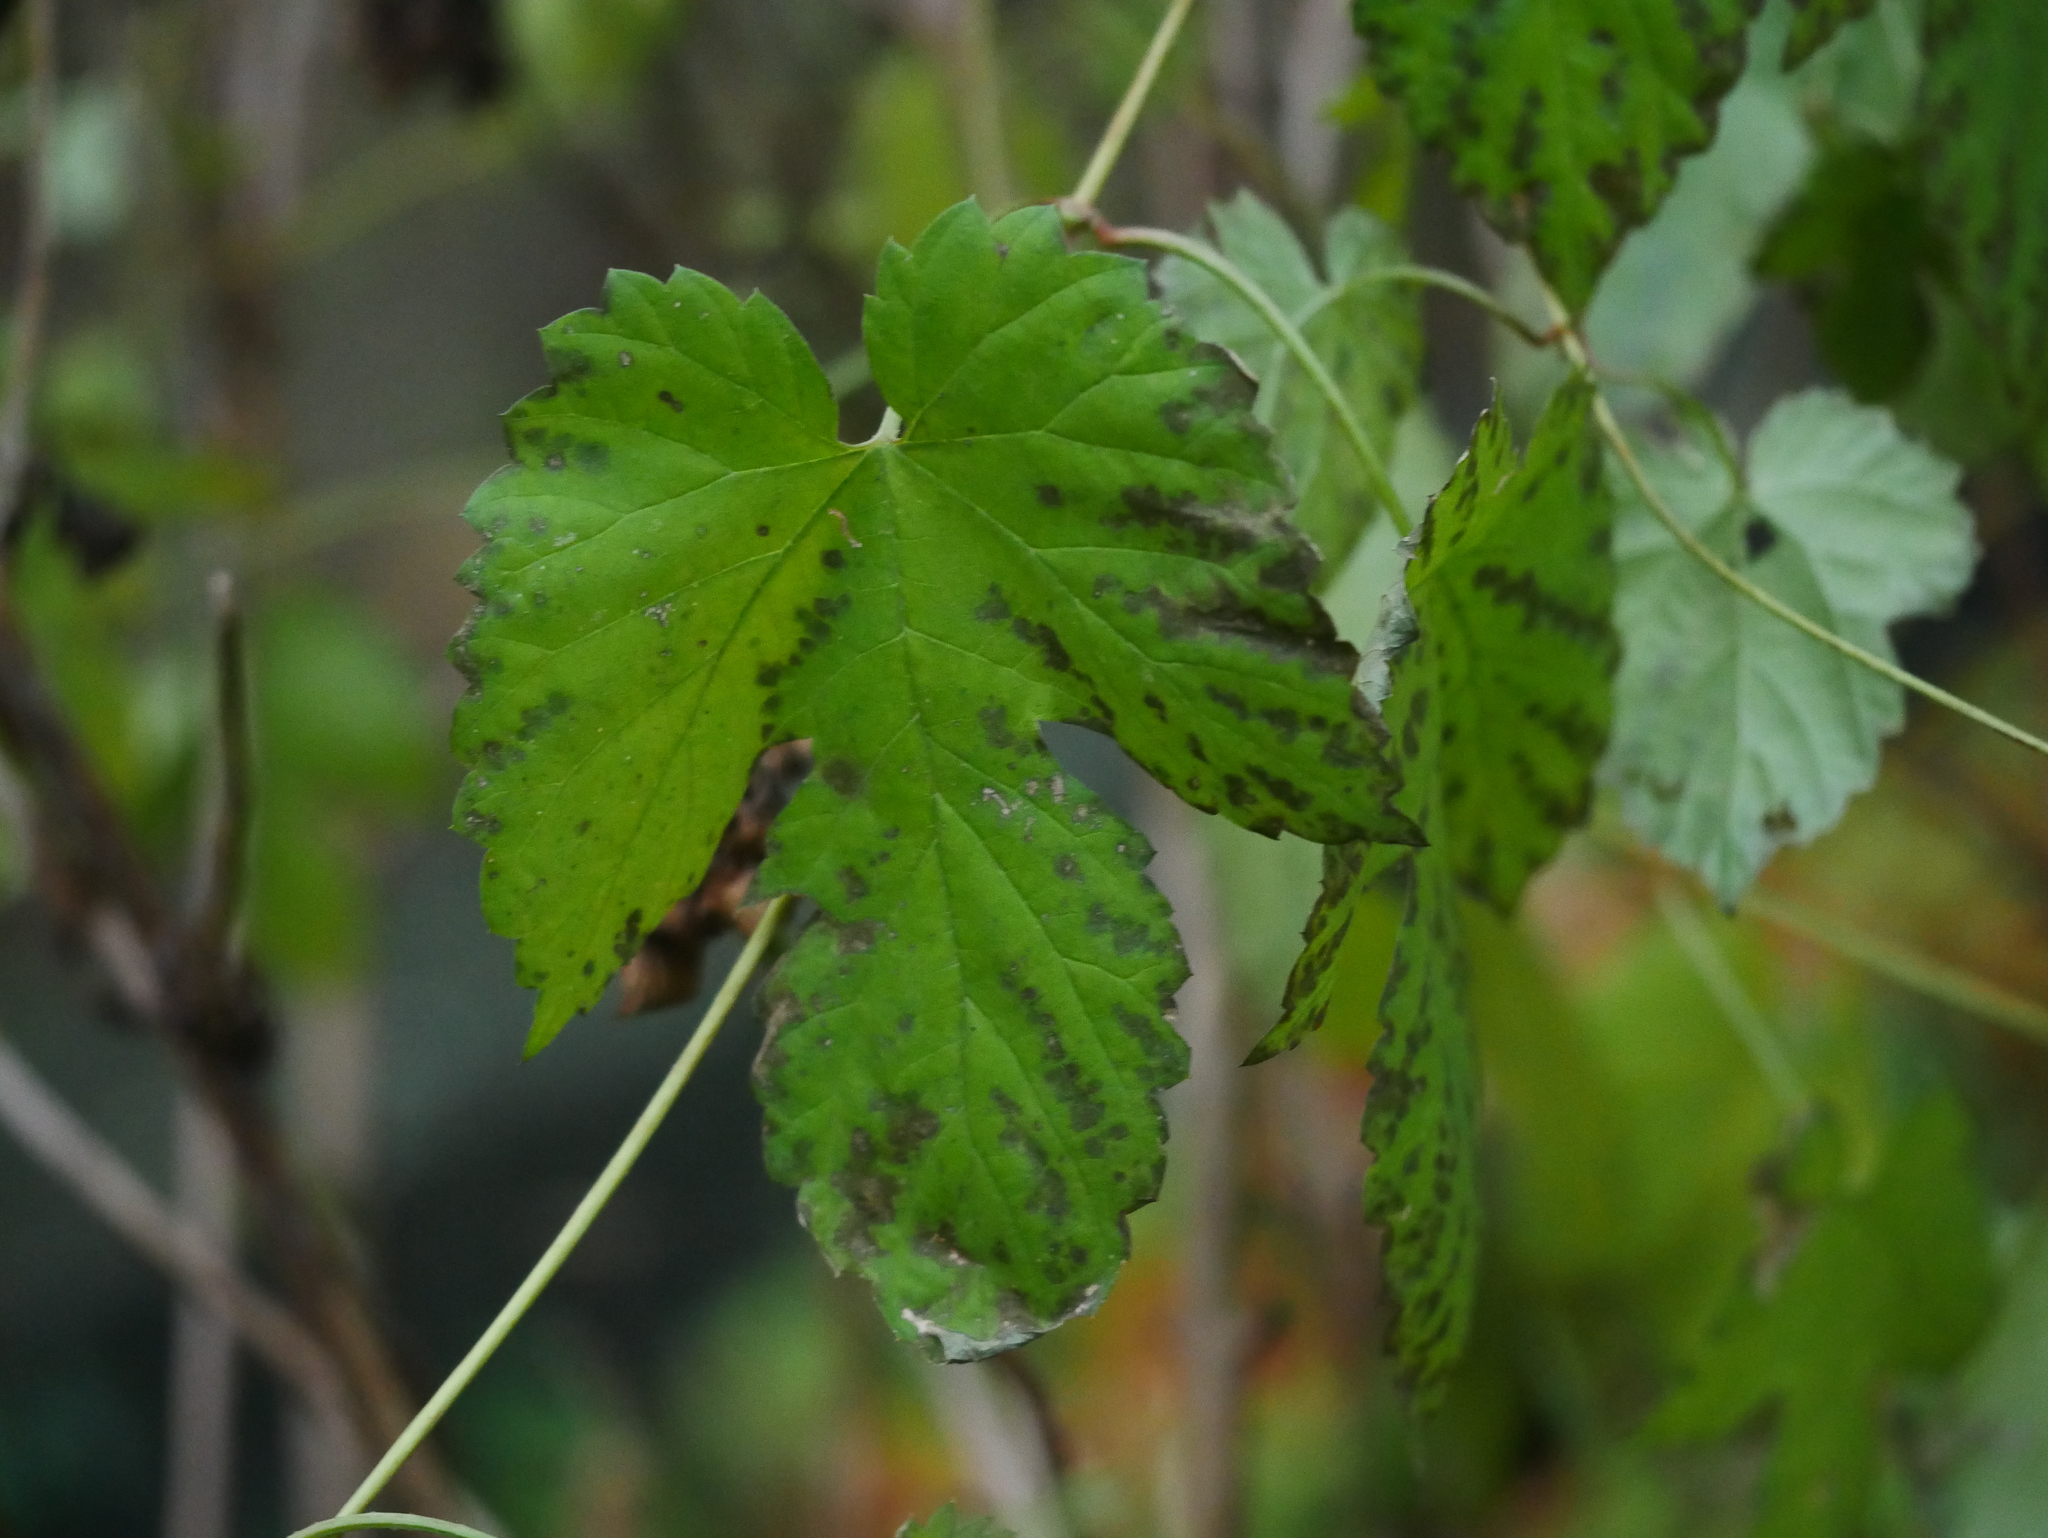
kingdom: Plantae
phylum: Tracheophyta
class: Magnoliopsida
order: Rosales
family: Cannabaceae
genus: Humulus
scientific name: Humulus lupulus
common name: Hop
